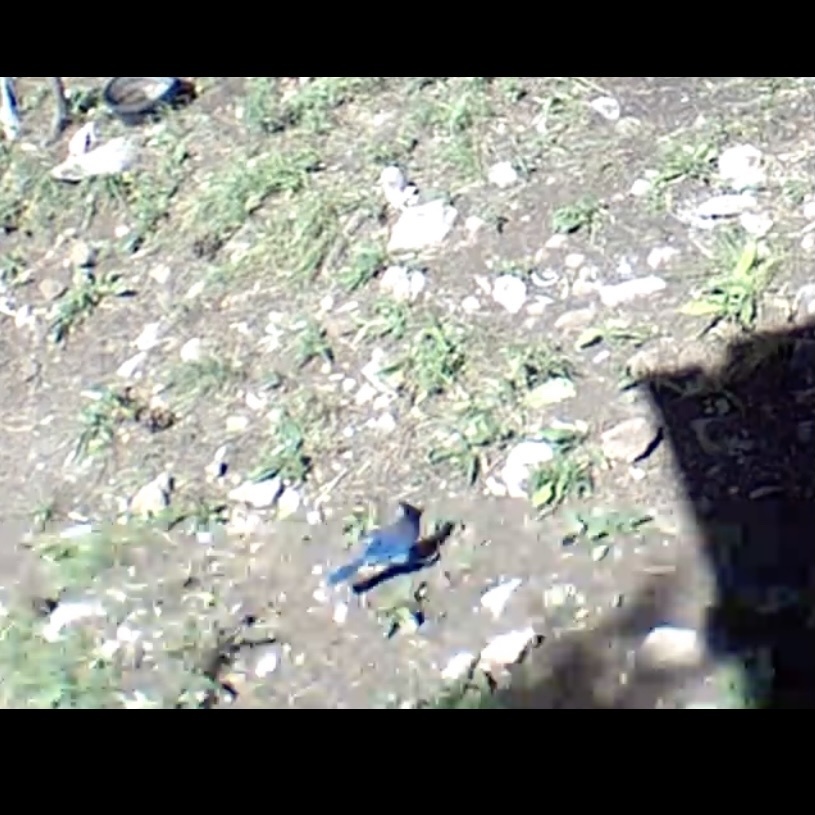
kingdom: Animalia
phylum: Chordata
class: Aves
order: Passeriformes
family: Corvidae
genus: Cyanocitta
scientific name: Cyanocitta stelleri
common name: Steller's jay
